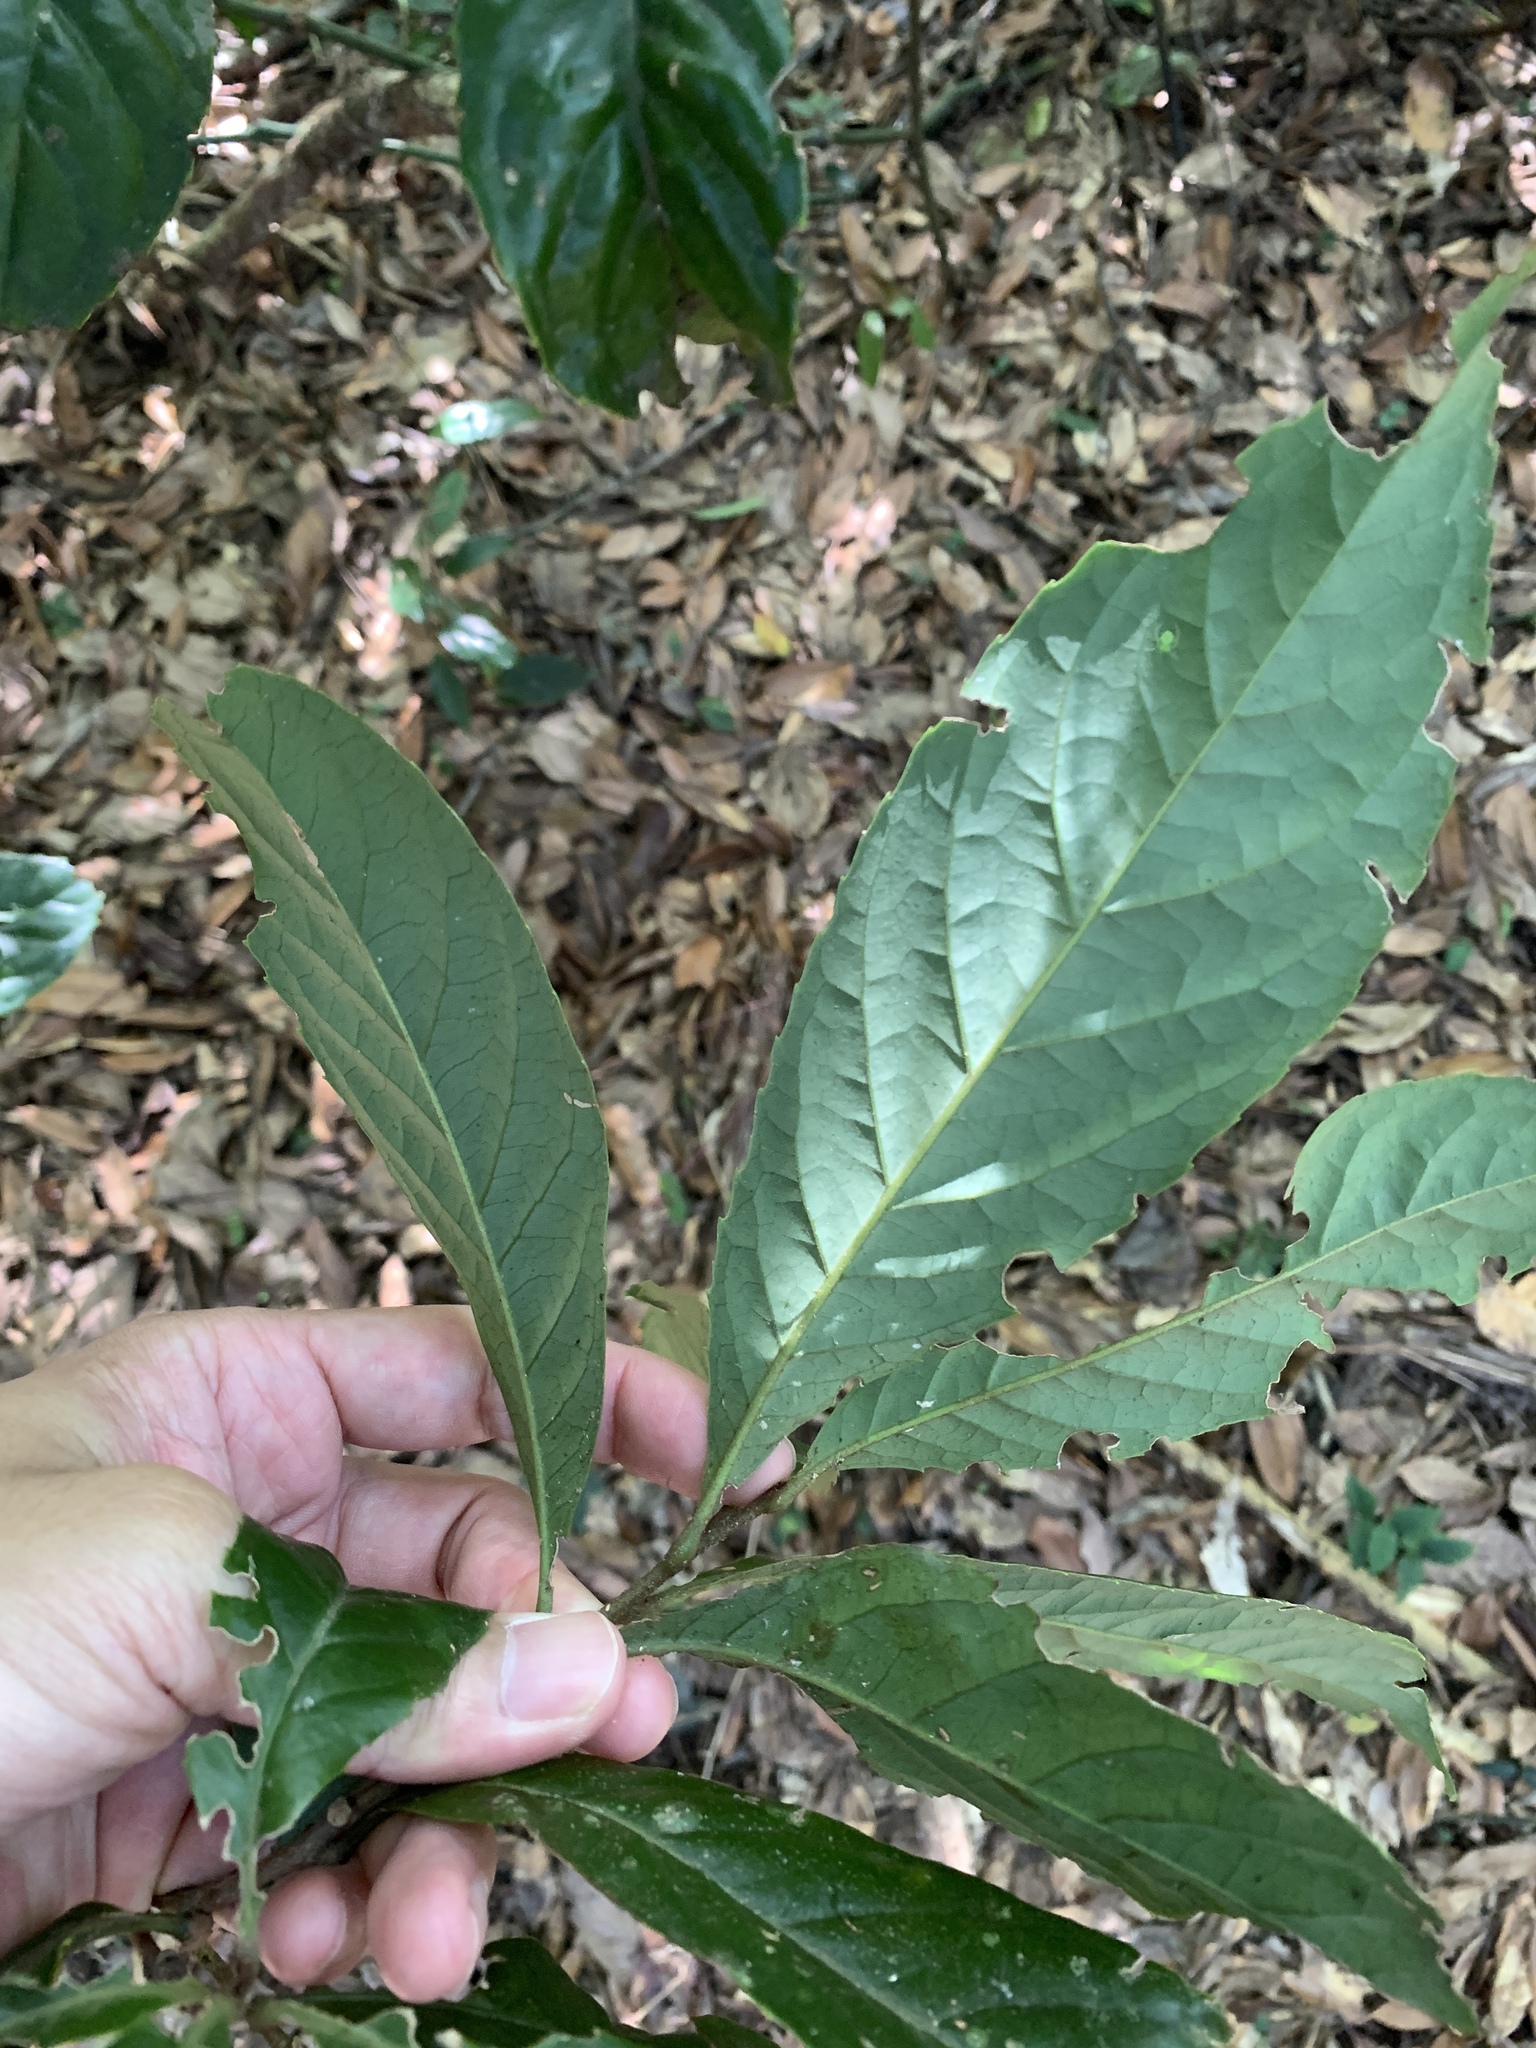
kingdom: Plantae
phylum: Tracheophyta
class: Magnoliopsida
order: Proteales
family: Proteaceae
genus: Helicia
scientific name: Helicia formosana
